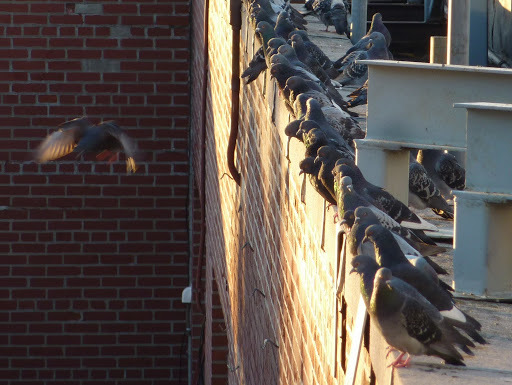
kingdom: Animalia
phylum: Chordata
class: Aves
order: Columbiformes
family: Columbidae
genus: Columba
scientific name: Columba livia
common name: Rock pigeon
